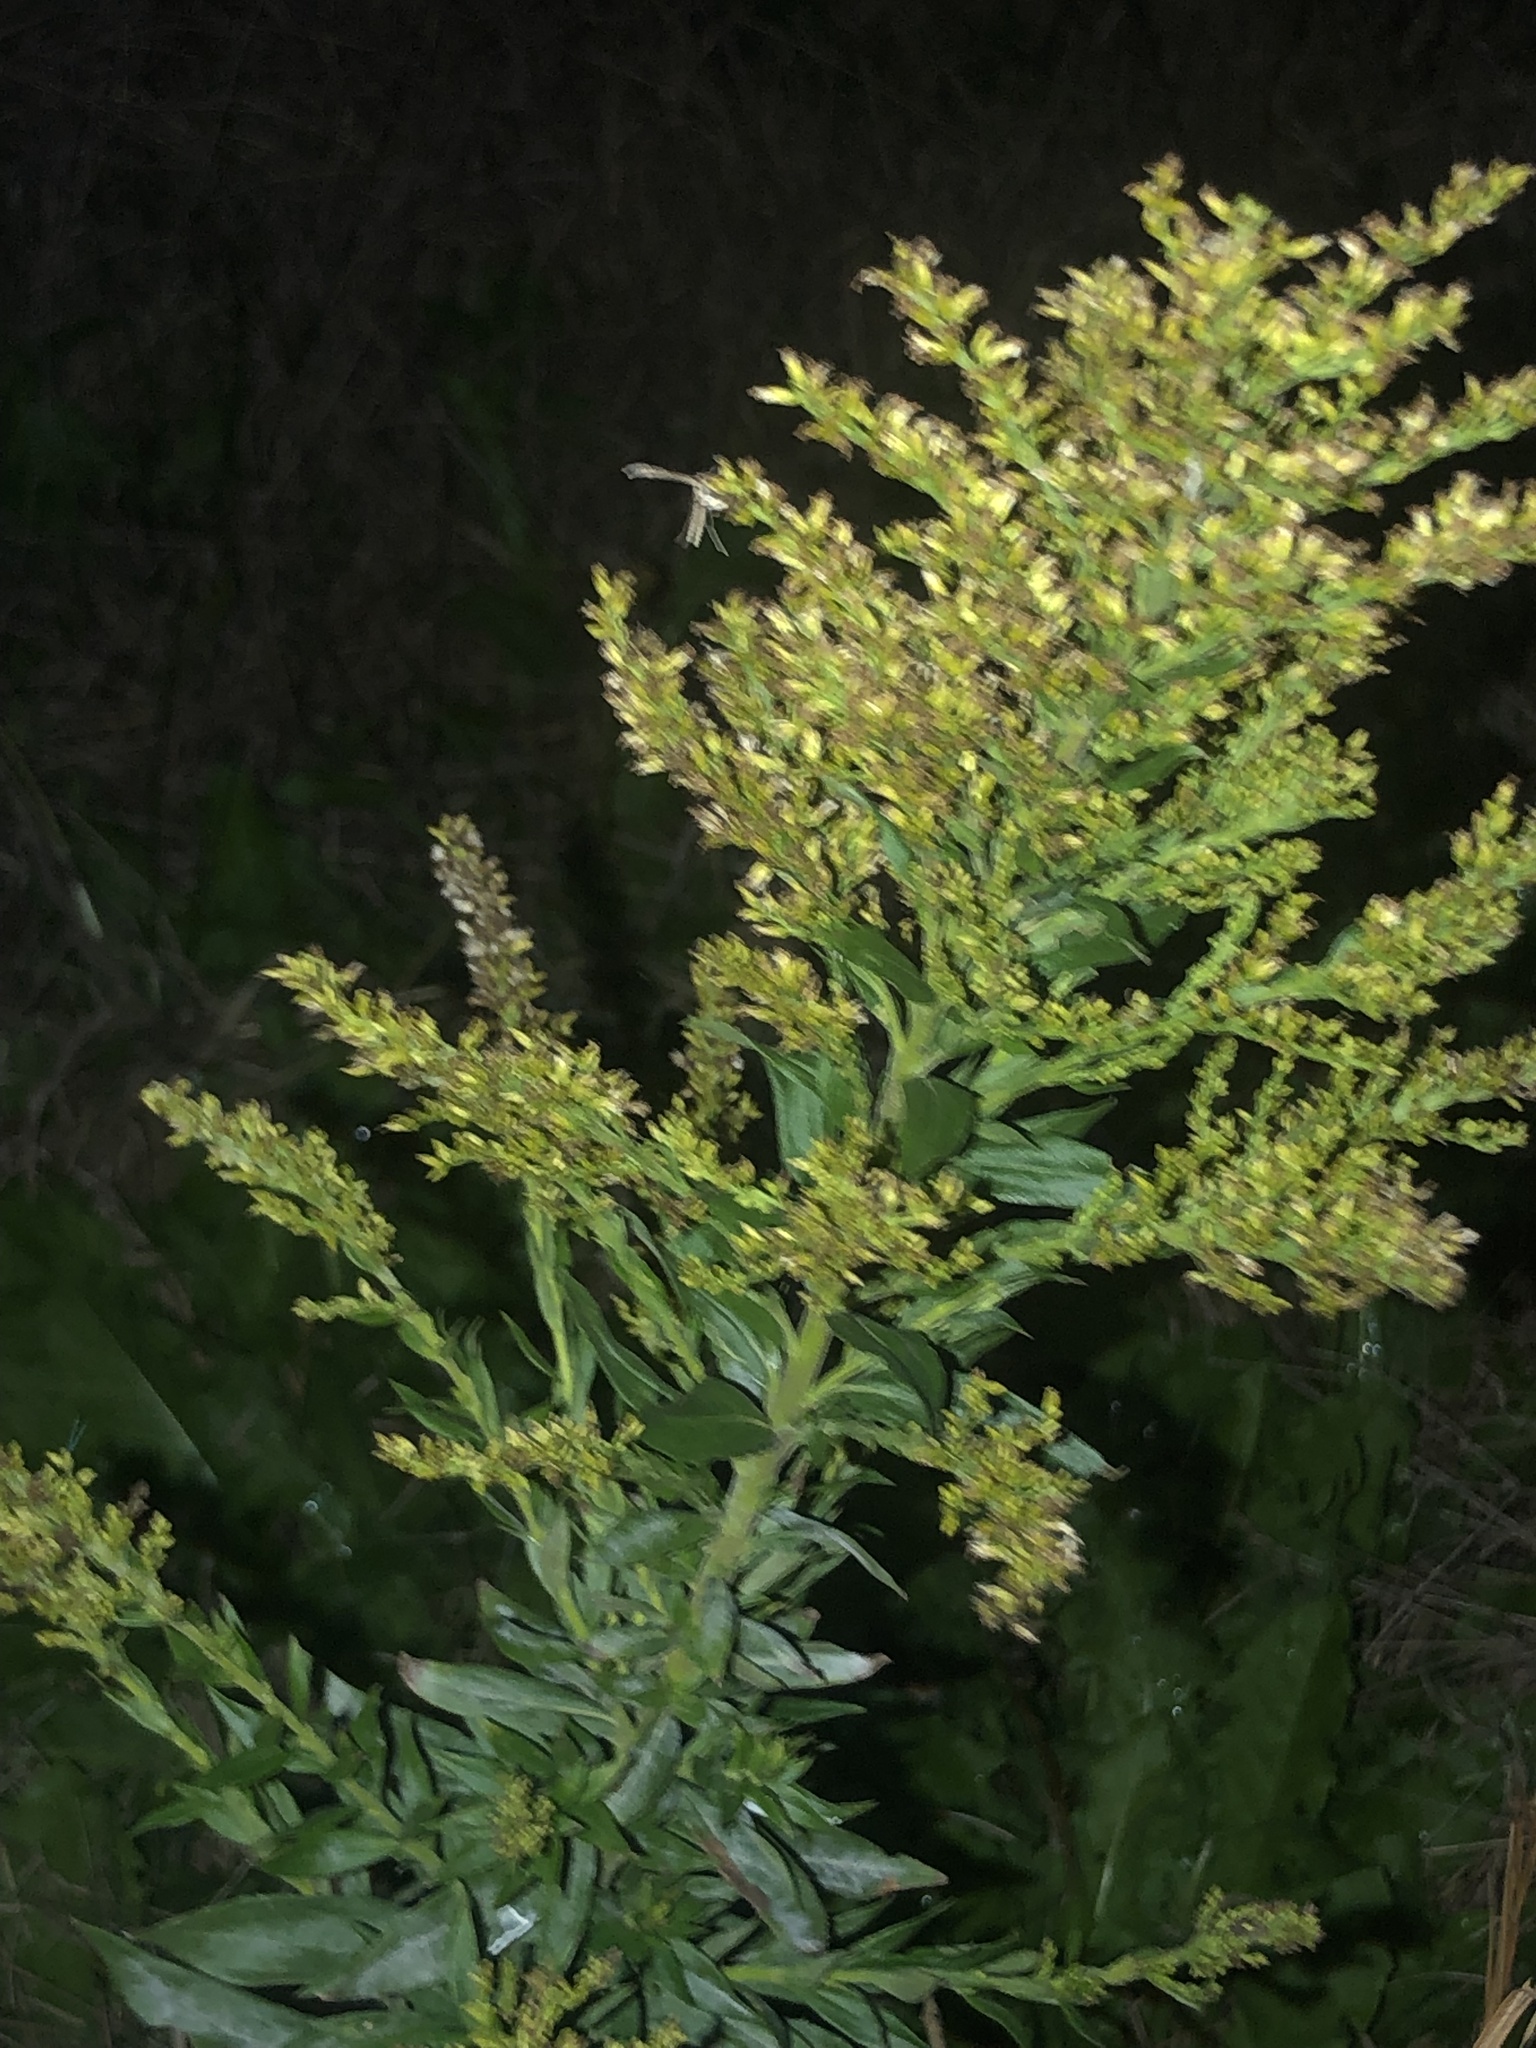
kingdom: Plantae
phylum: Tracheophyta
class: Magnoliopsida
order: Asterales
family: Asteraceae
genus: Solidago
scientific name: Solidago altissima
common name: Late goldenrod
